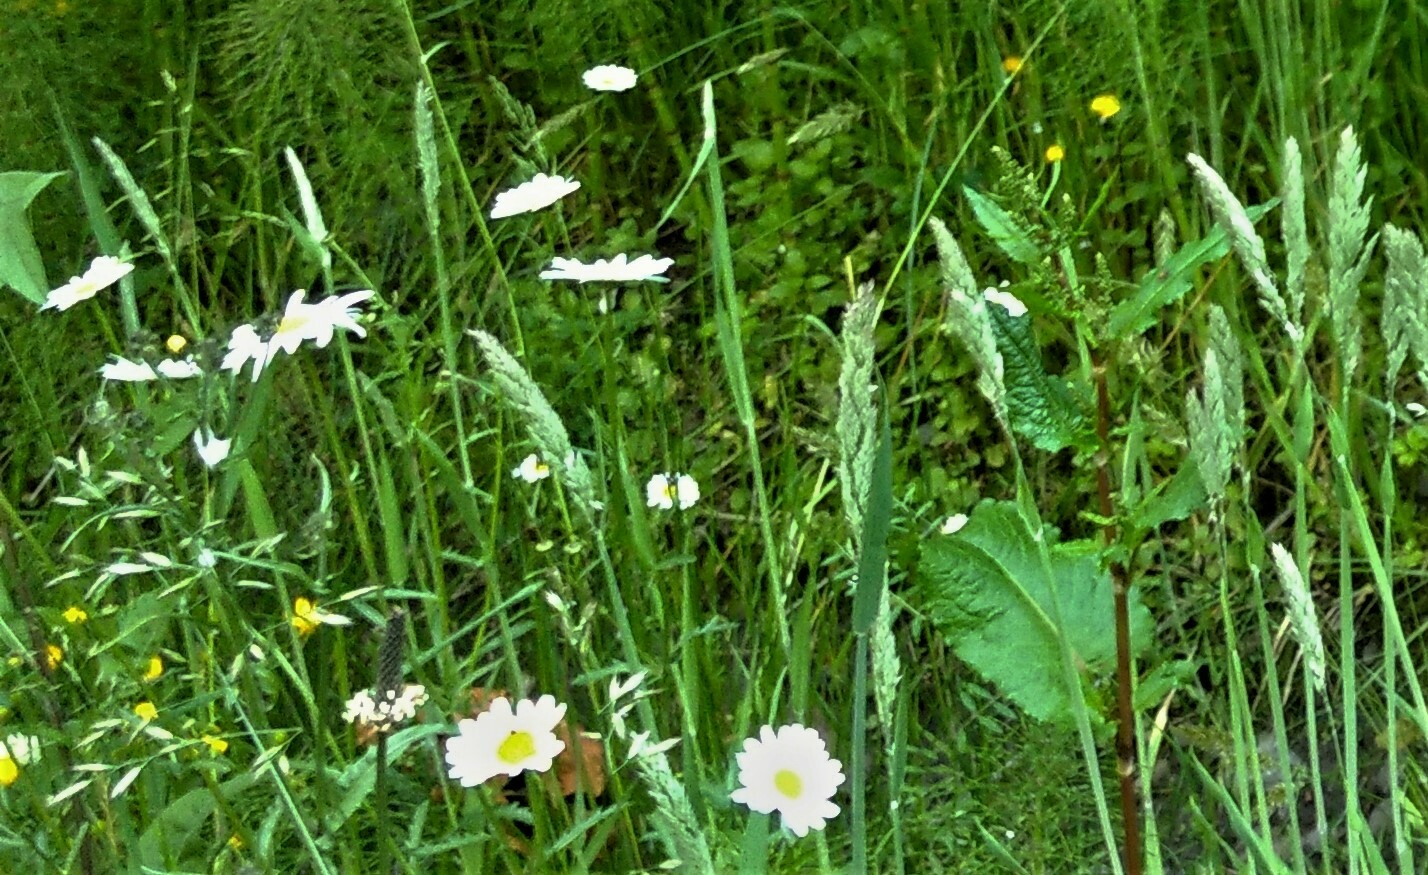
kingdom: Plantae
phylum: Tracheophyta
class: Magnoliopsida
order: Asterales
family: Asteraceae
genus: Leucanthemum
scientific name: Leucanthemum vulgare
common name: Oxeye daisy
